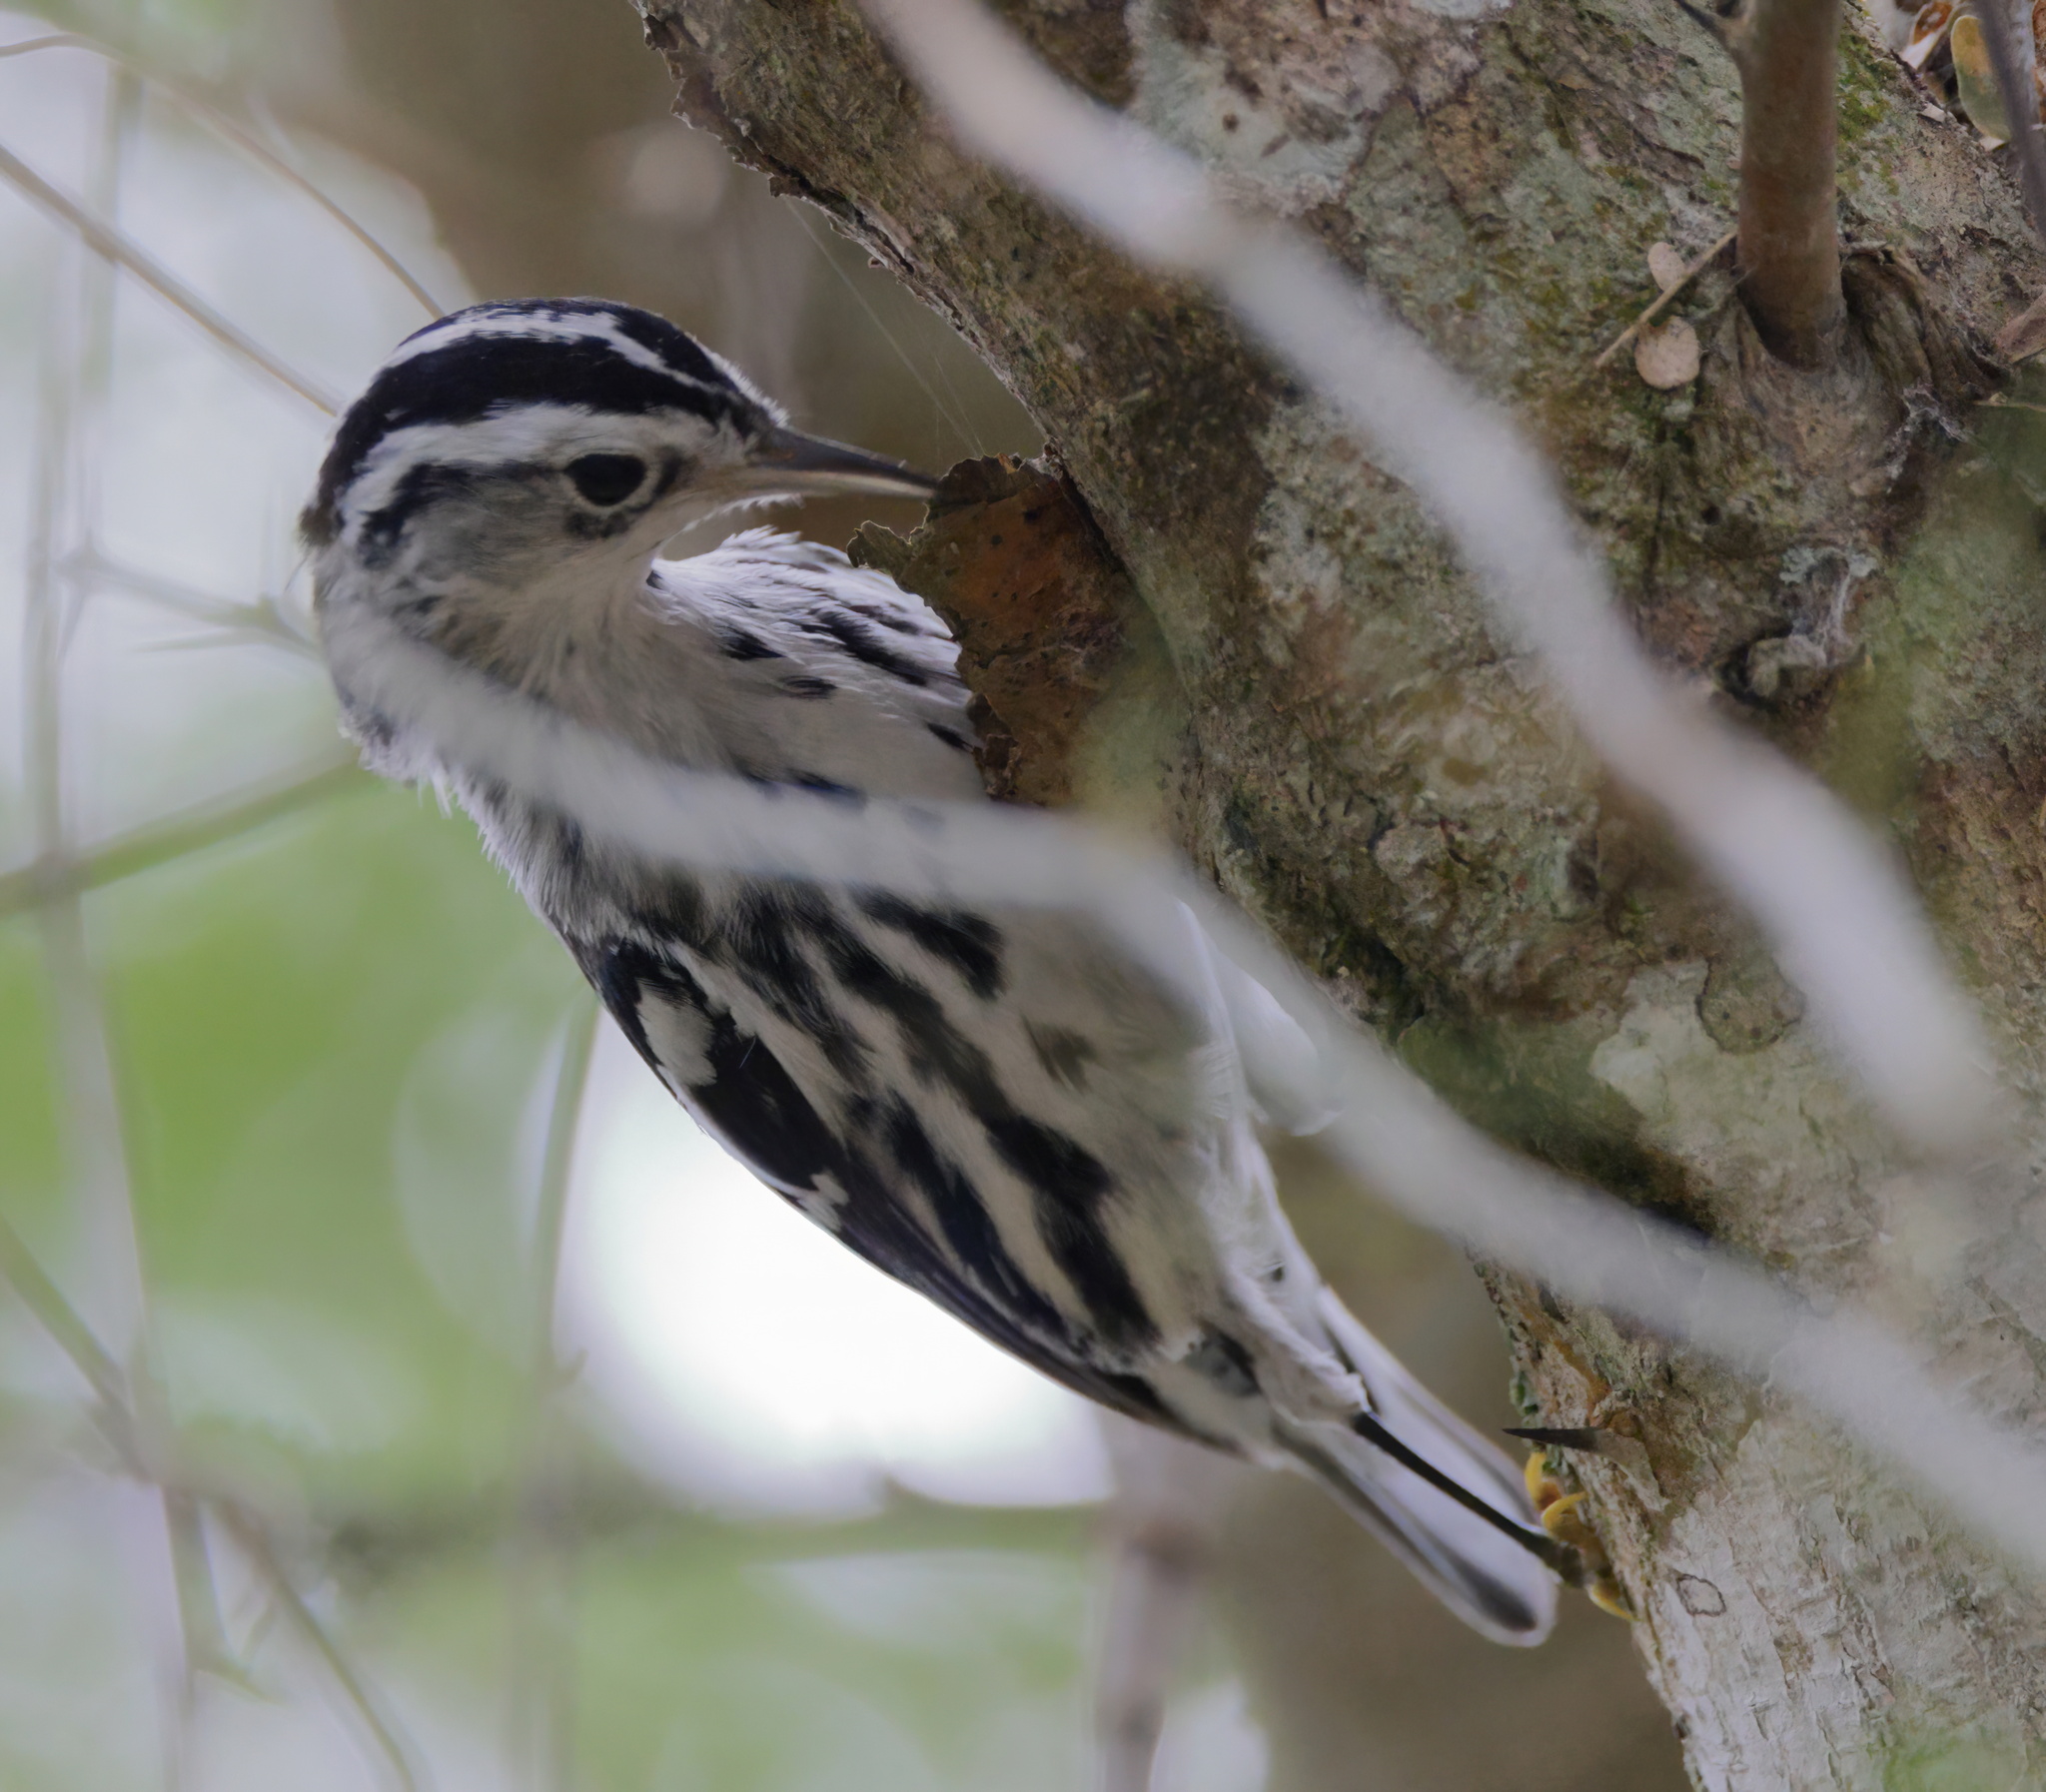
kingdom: Animalia
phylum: Chordata
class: Aves
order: Passeriformes
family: Parulidae
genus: Mniotilta
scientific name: Mniotilta varia
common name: Black-and-white warbler
